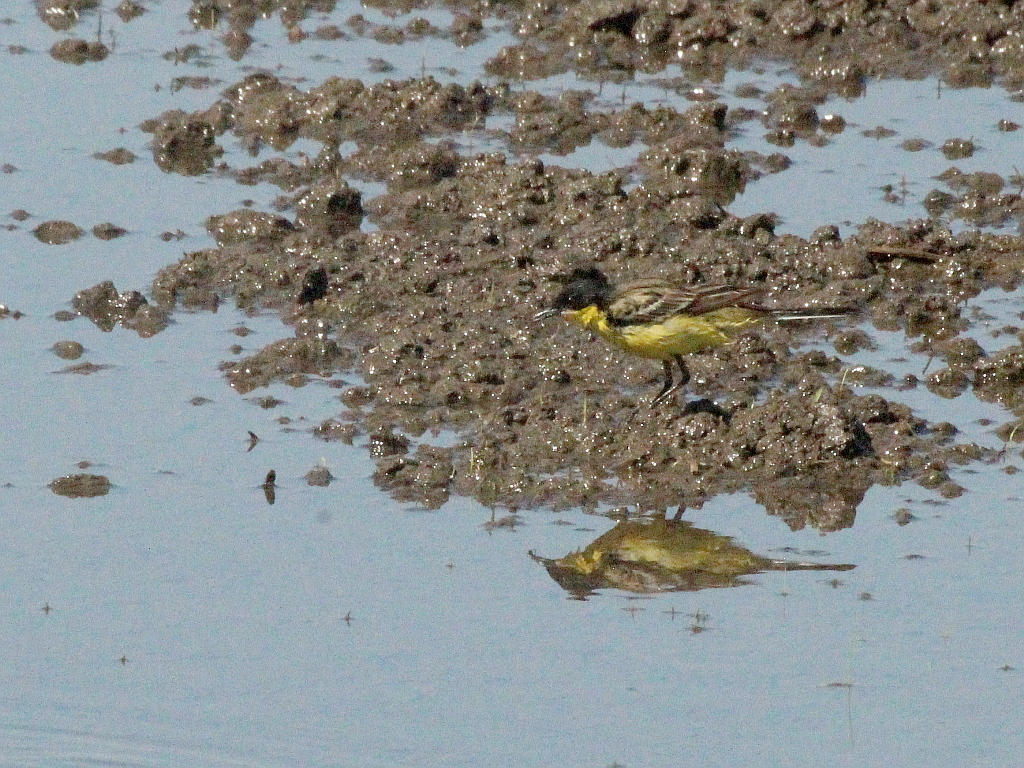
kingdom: Animalia
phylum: Chordata
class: Aves
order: Passeriformes
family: Motacillidae
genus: Motacilla
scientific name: Motacilla flava
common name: Western yellow wagtail
